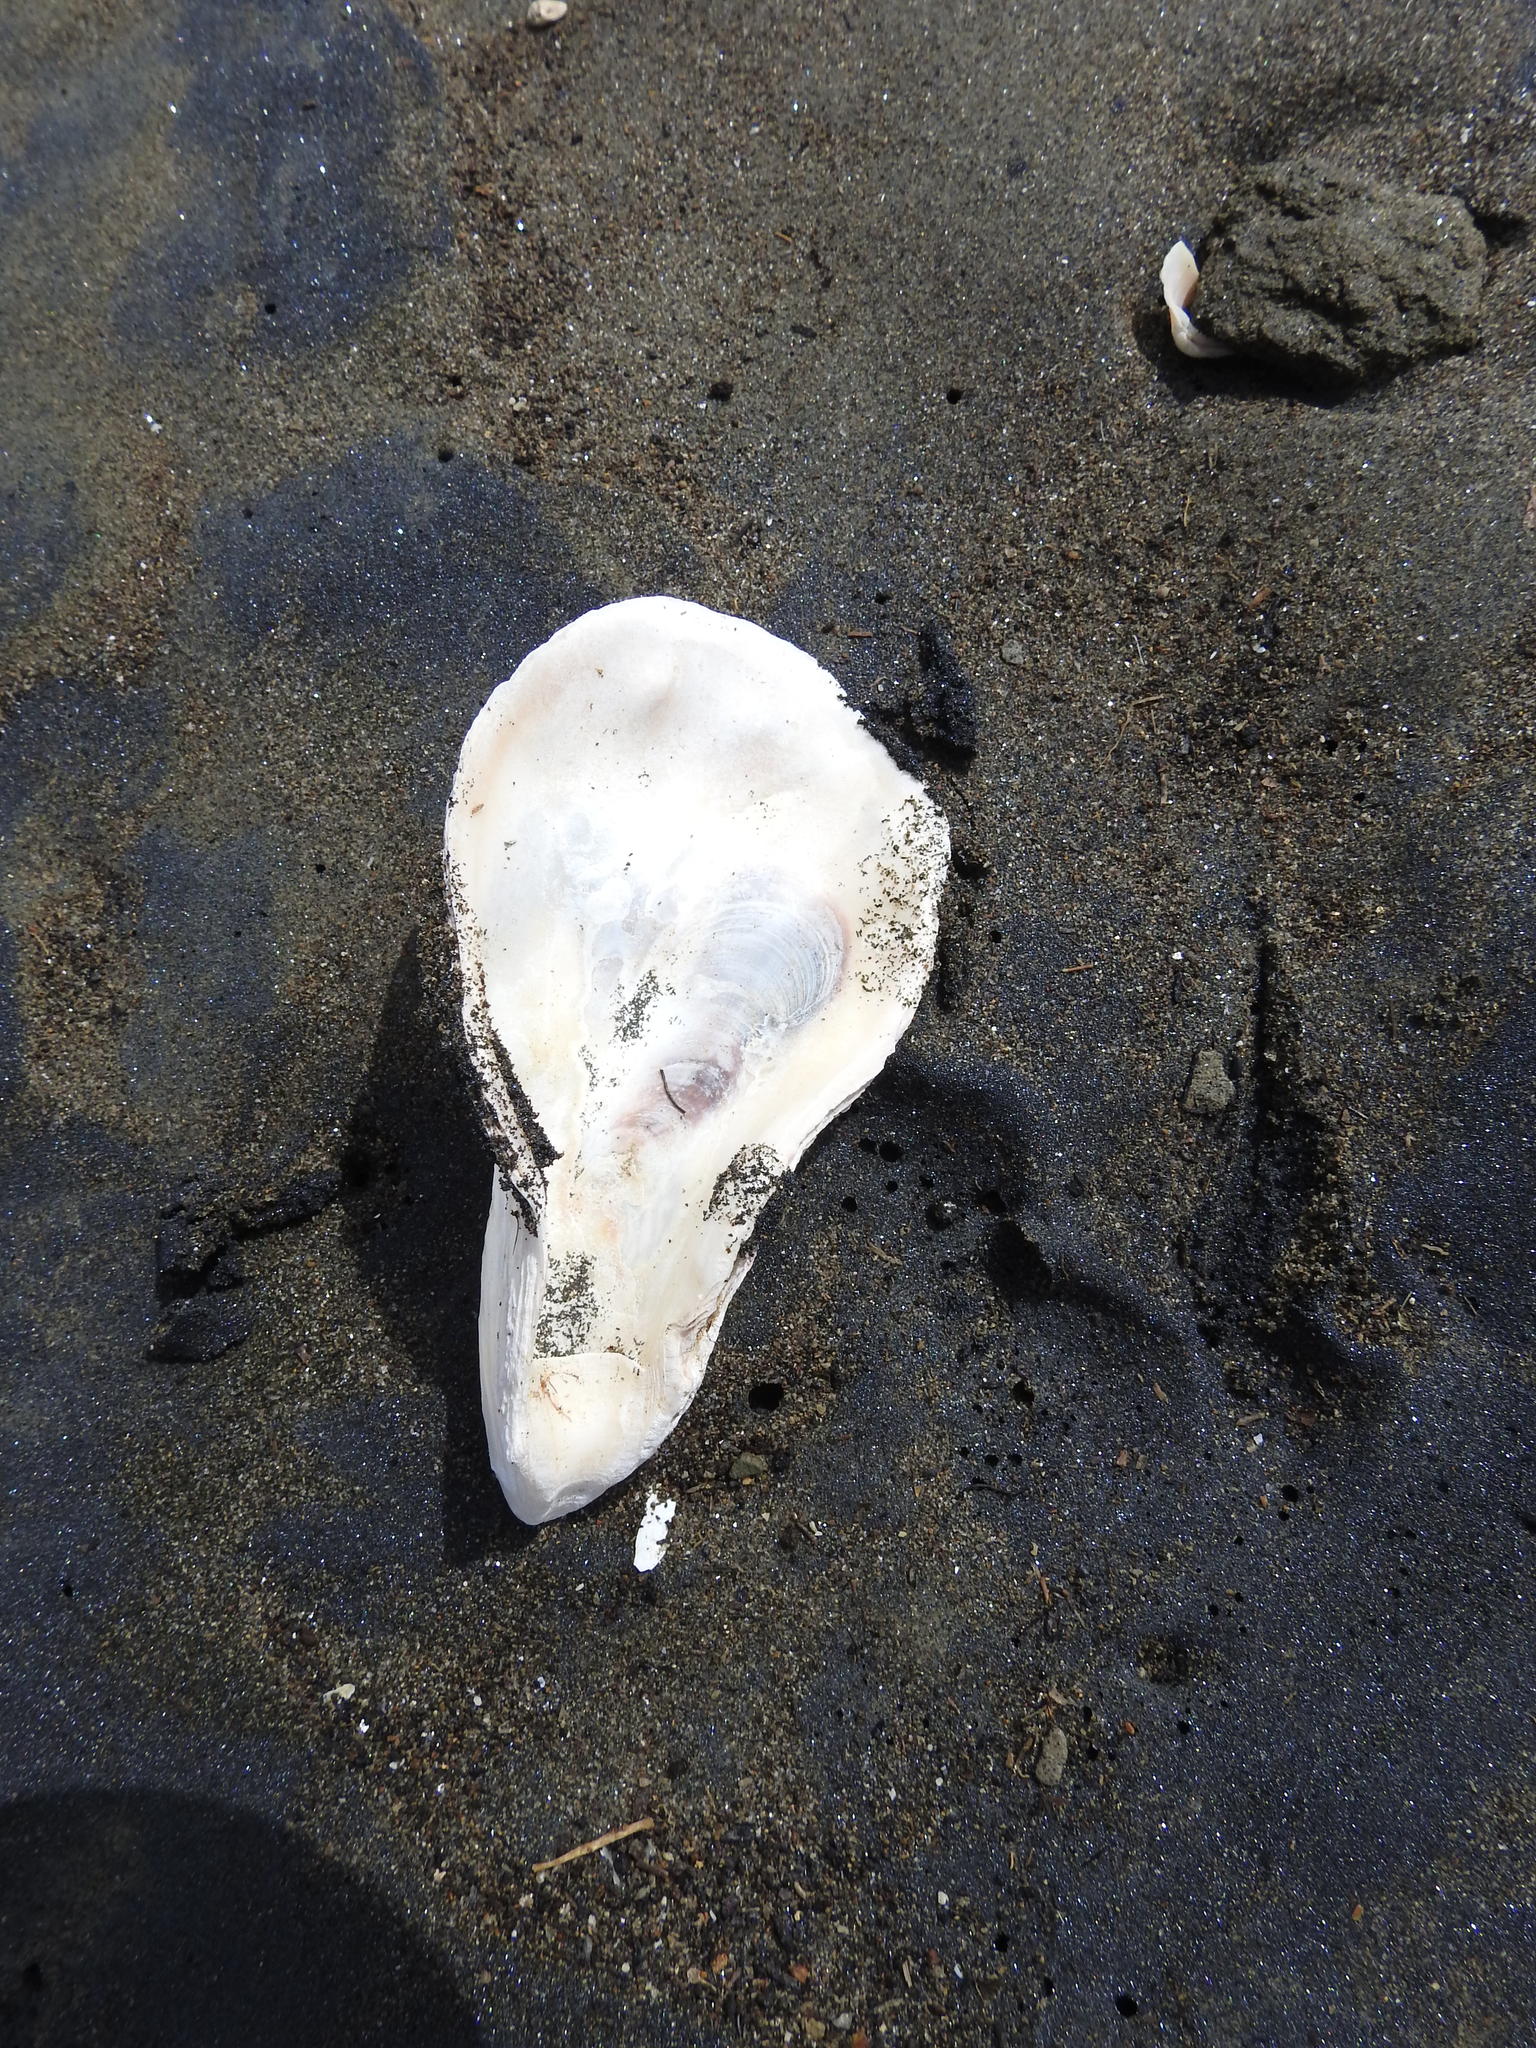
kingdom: Animalia
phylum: Mollusca
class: Bivalvia
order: Ostreida
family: Ostreidae
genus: Magallana
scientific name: Magallana gigas
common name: Pacific oyster
